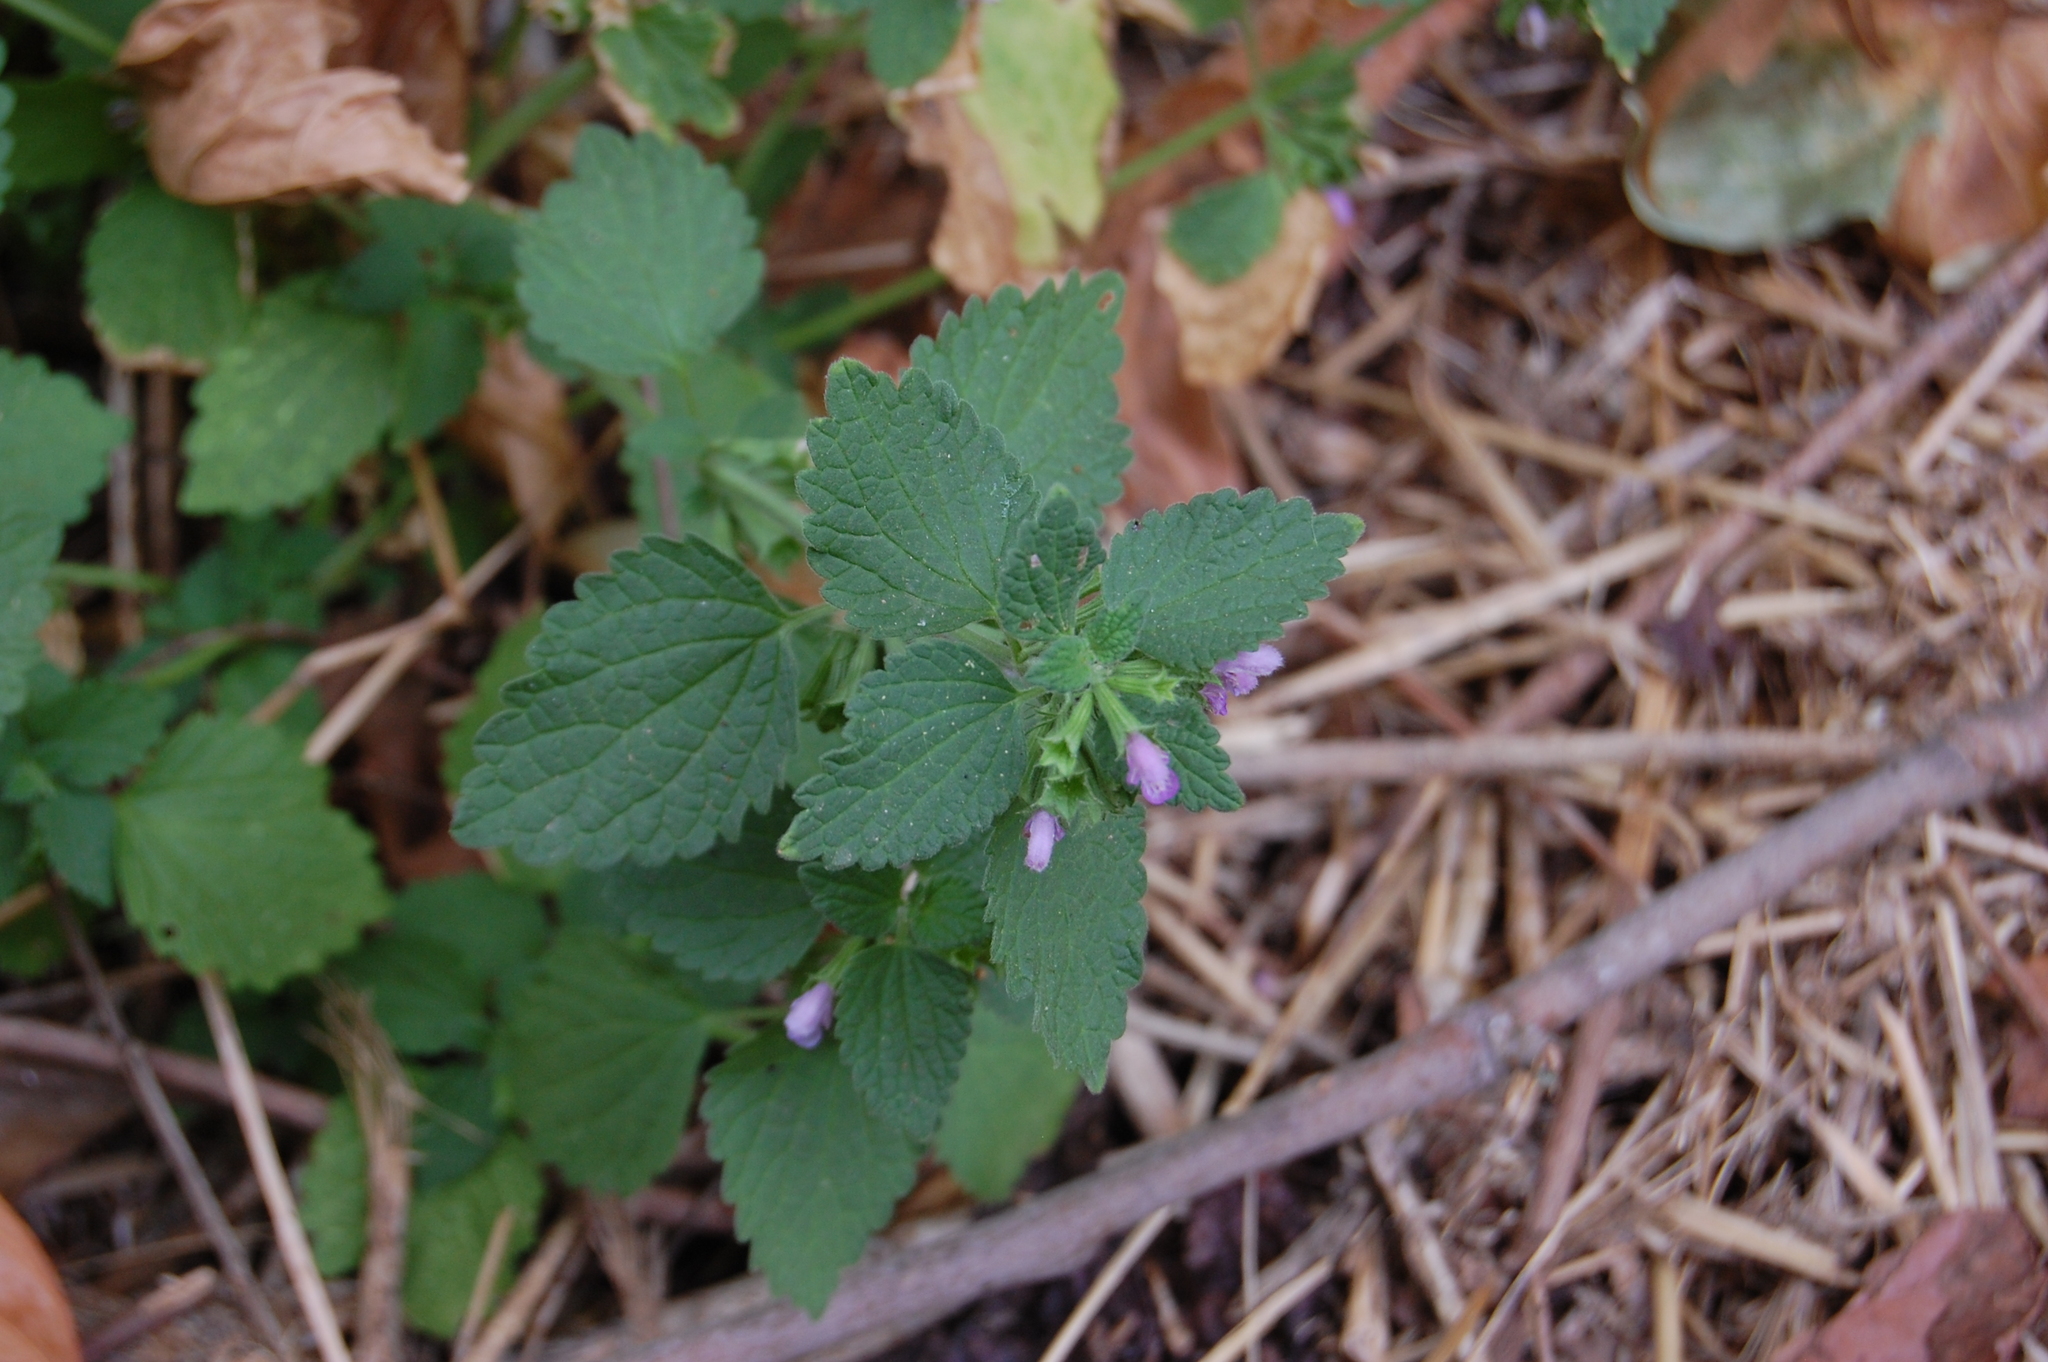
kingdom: Plantae
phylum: Tracheophyta
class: Magnoliopsida
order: Lamiales
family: Lamiaceae
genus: Ballota
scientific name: Ballota nigra
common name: Black horehound
